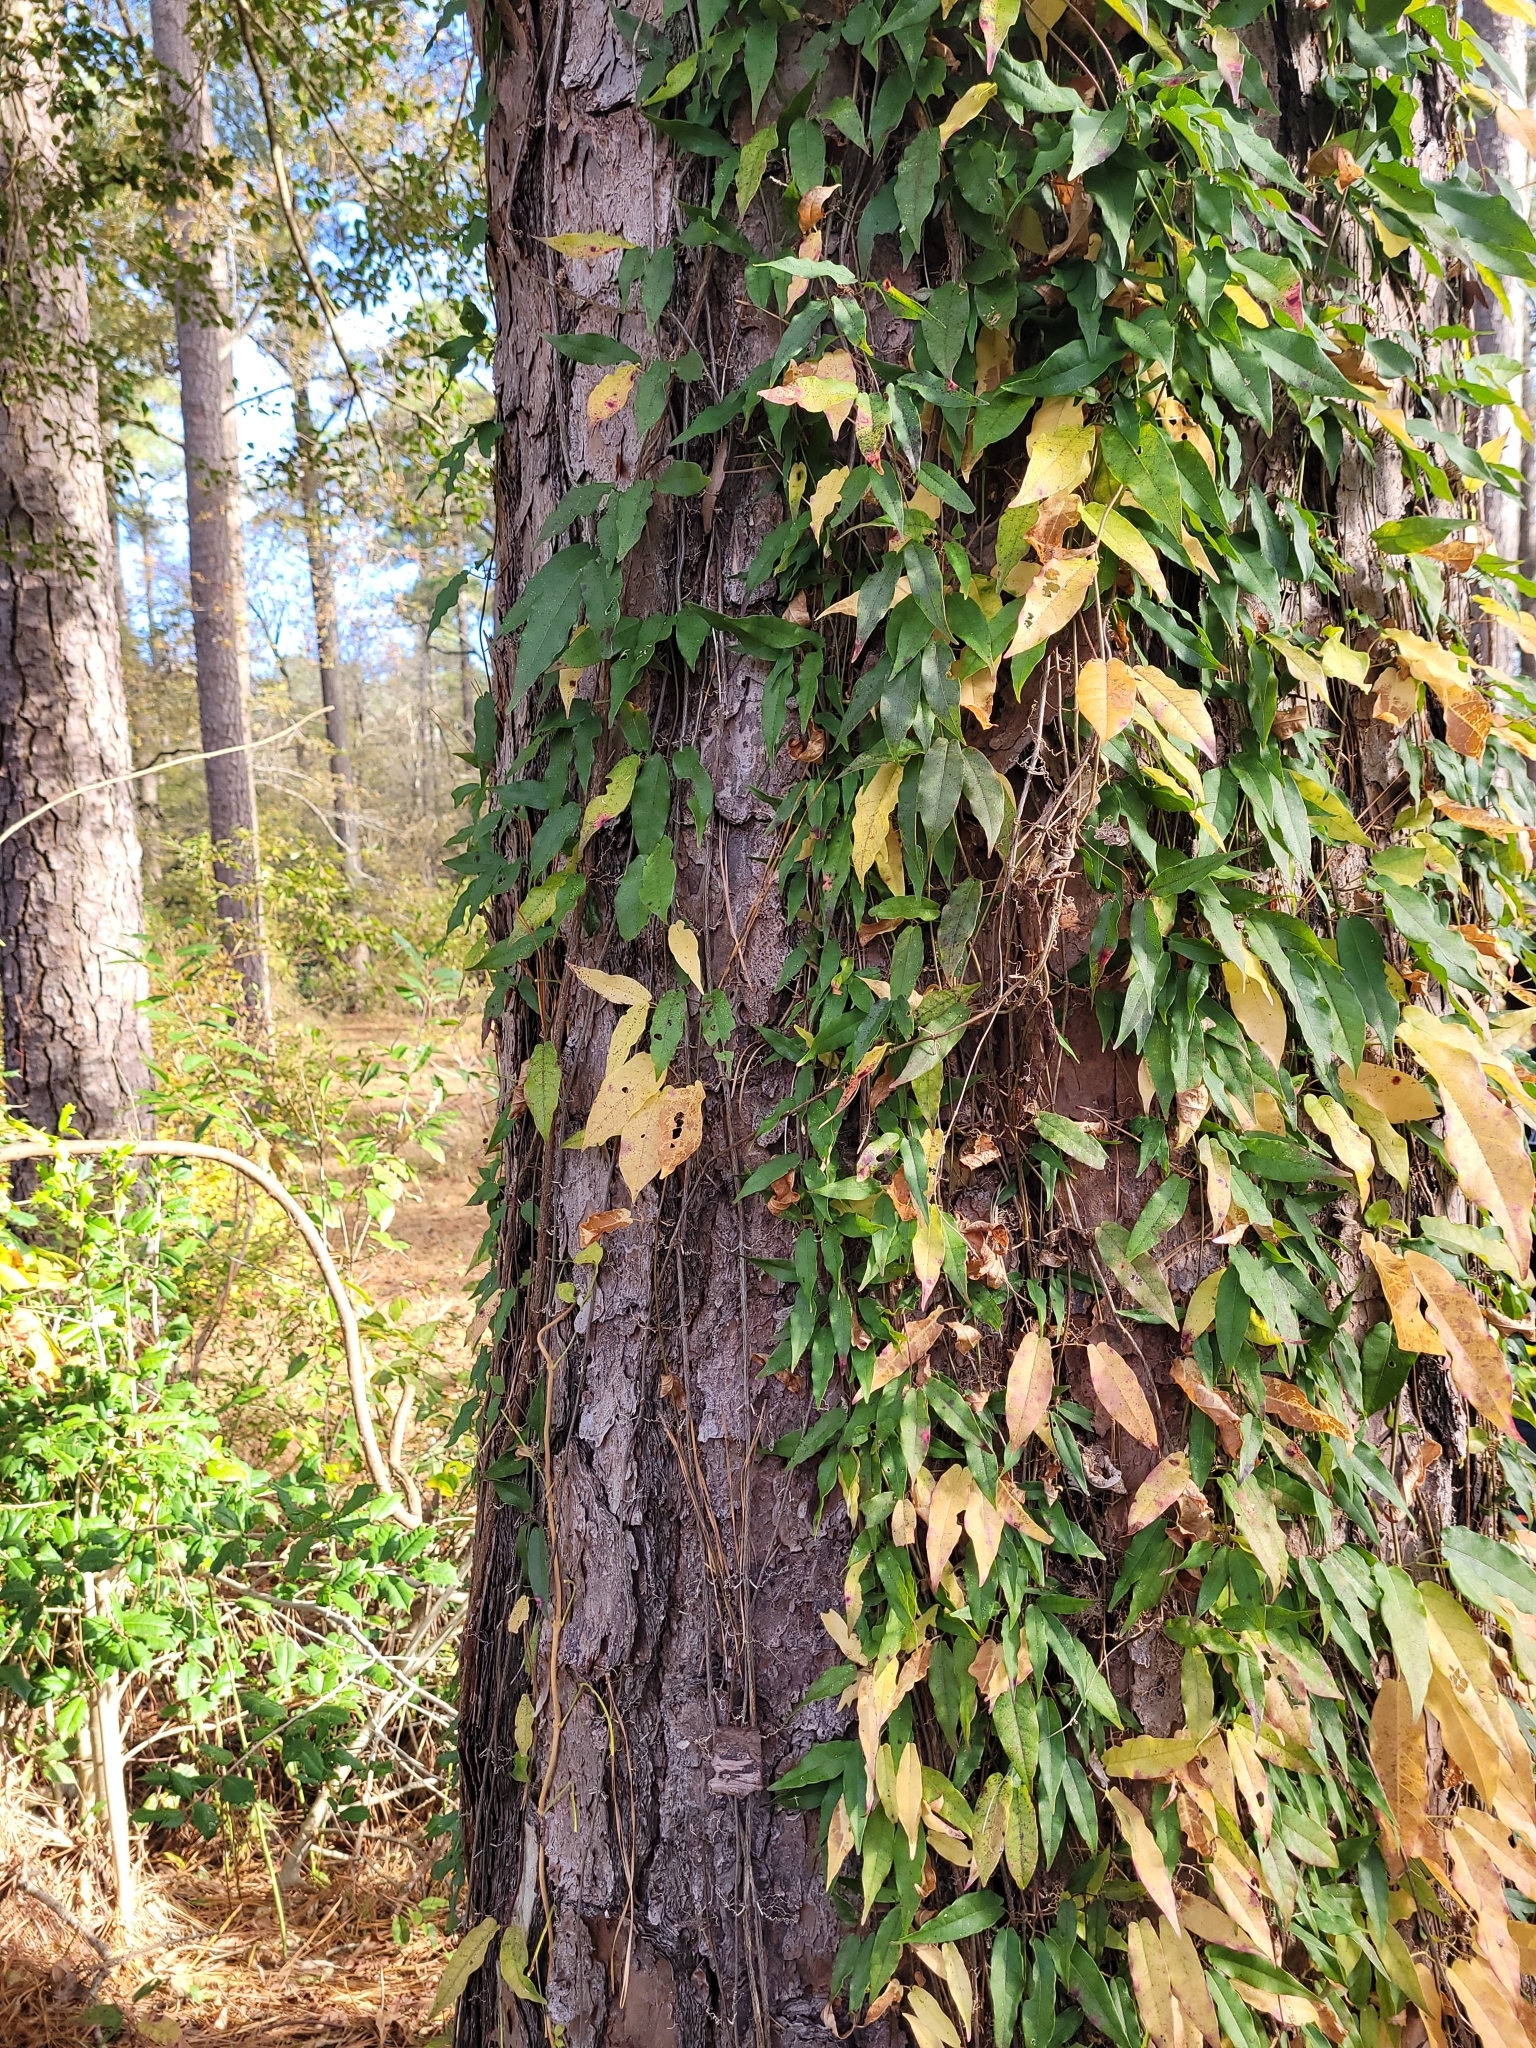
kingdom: Plantae
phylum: Tracheophyta
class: Magnoliopsida
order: Lamiales
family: Bignoniaceae
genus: Bignonia
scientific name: Bignonia capreolata
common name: Crossvine
